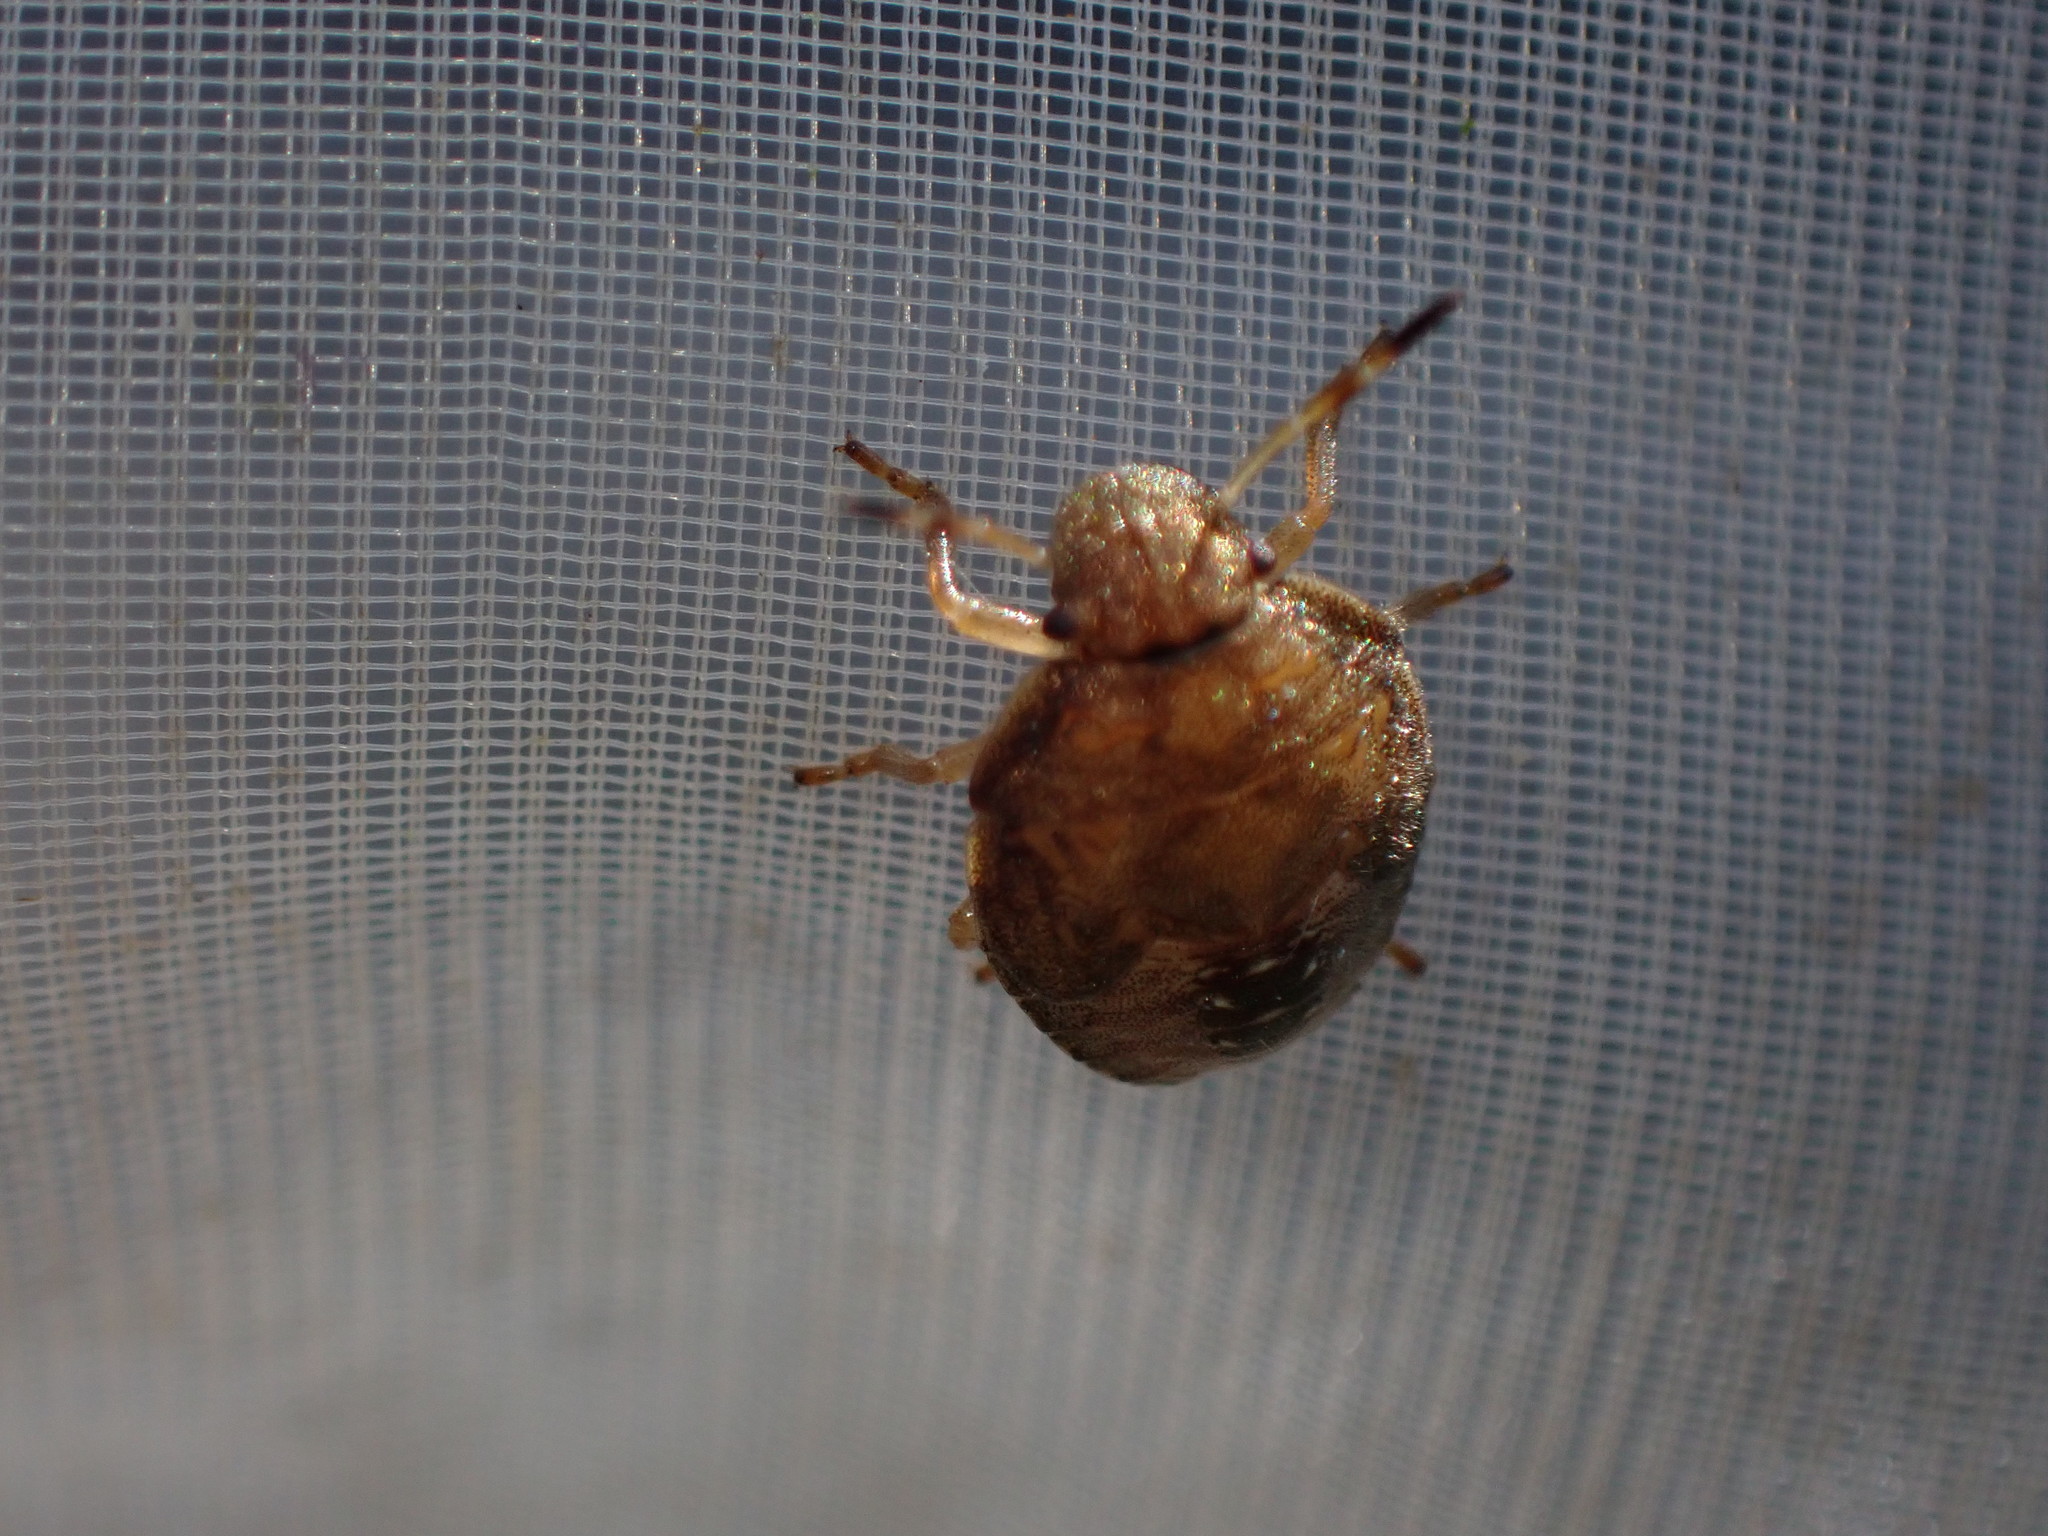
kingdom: Animalia
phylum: Arthropoda
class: Insecta
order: Hemiptera
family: Pentatomidae
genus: Holcostethus
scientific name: Holcostethus strictus
